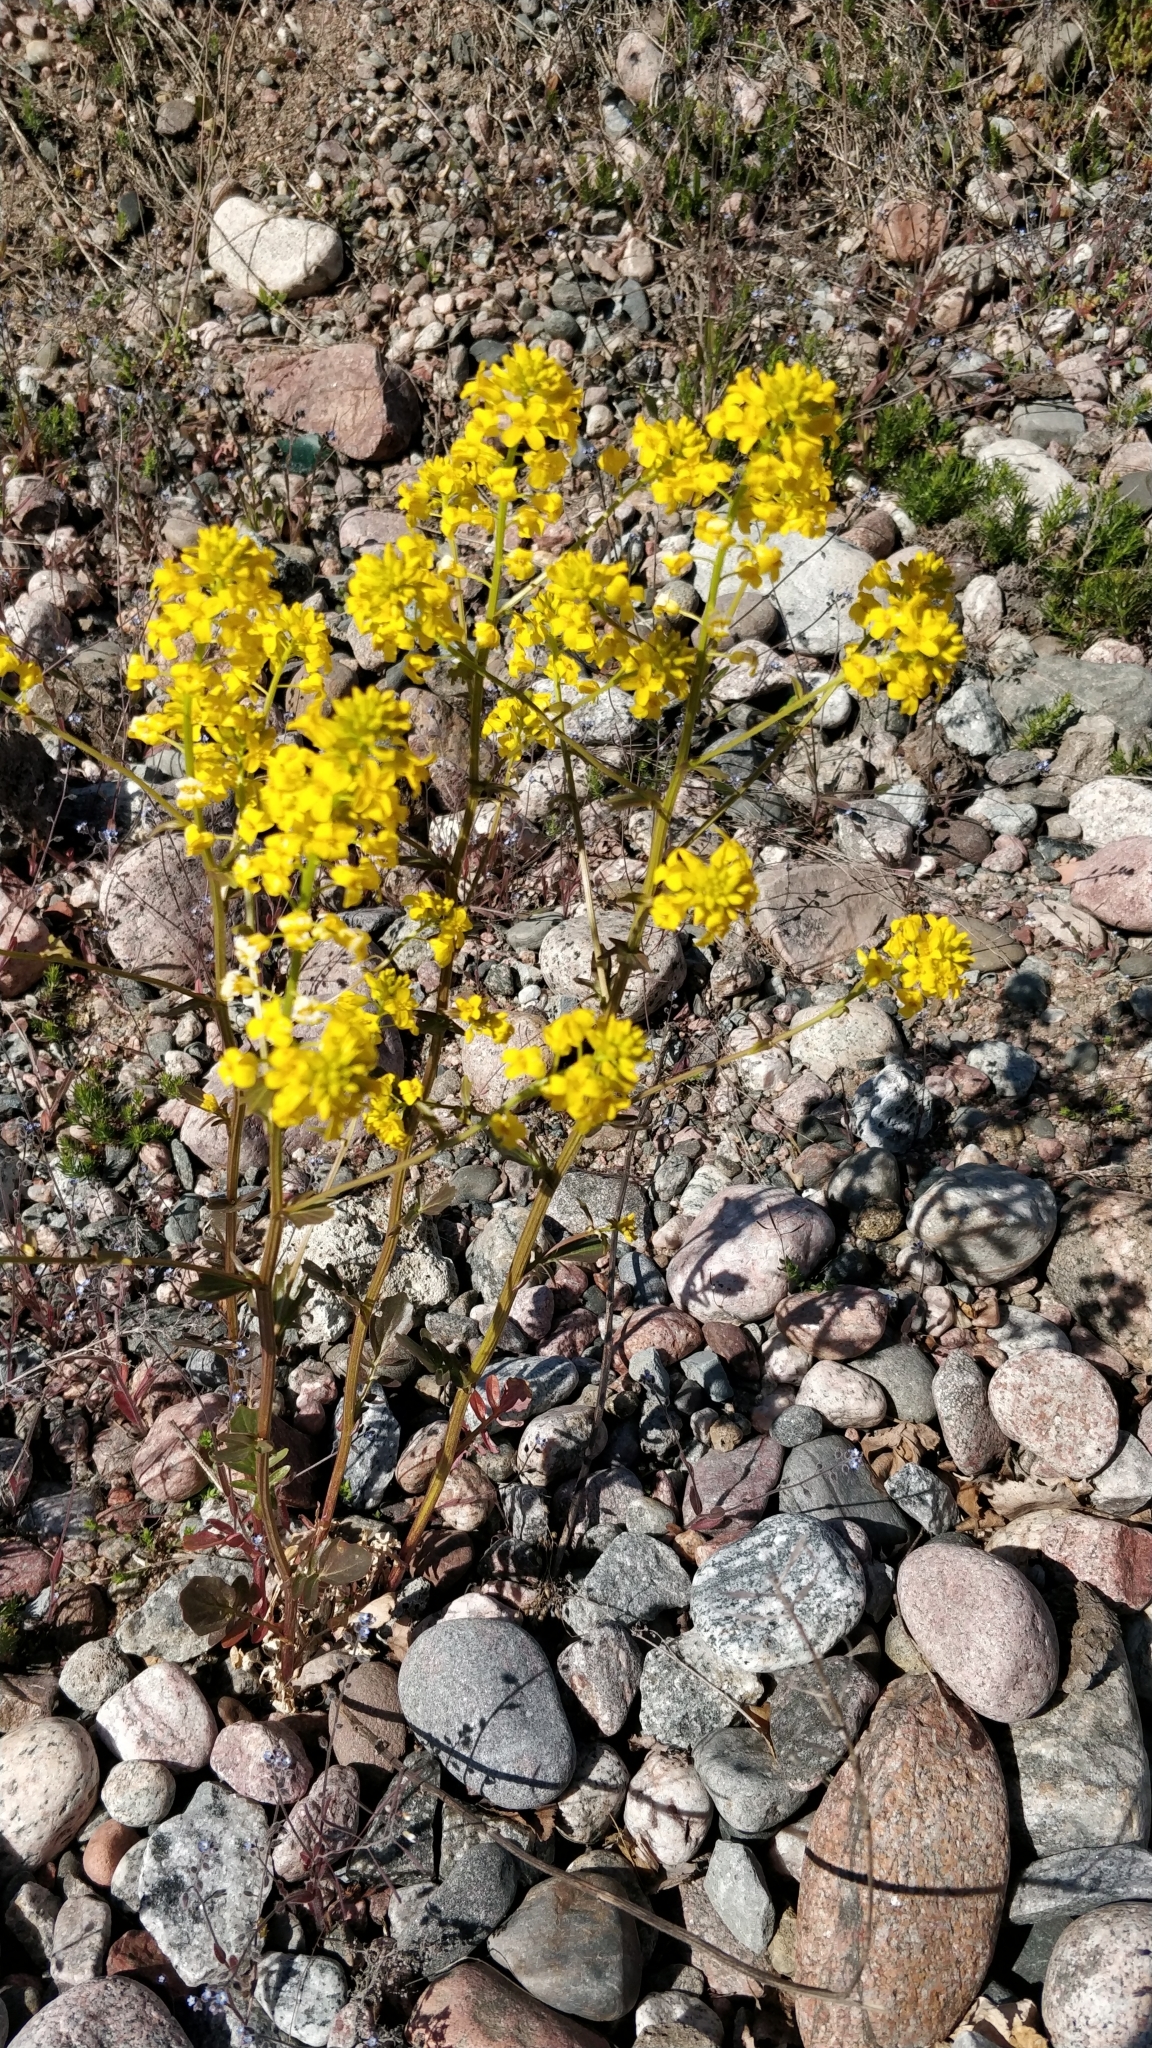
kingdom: Plantae
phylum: Tracheophyta
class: Magnoliopsida
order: Brassicales
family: Brassicaceae
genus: Barbarea
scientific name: Barbarea vulgaris
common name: Cressy-greens
